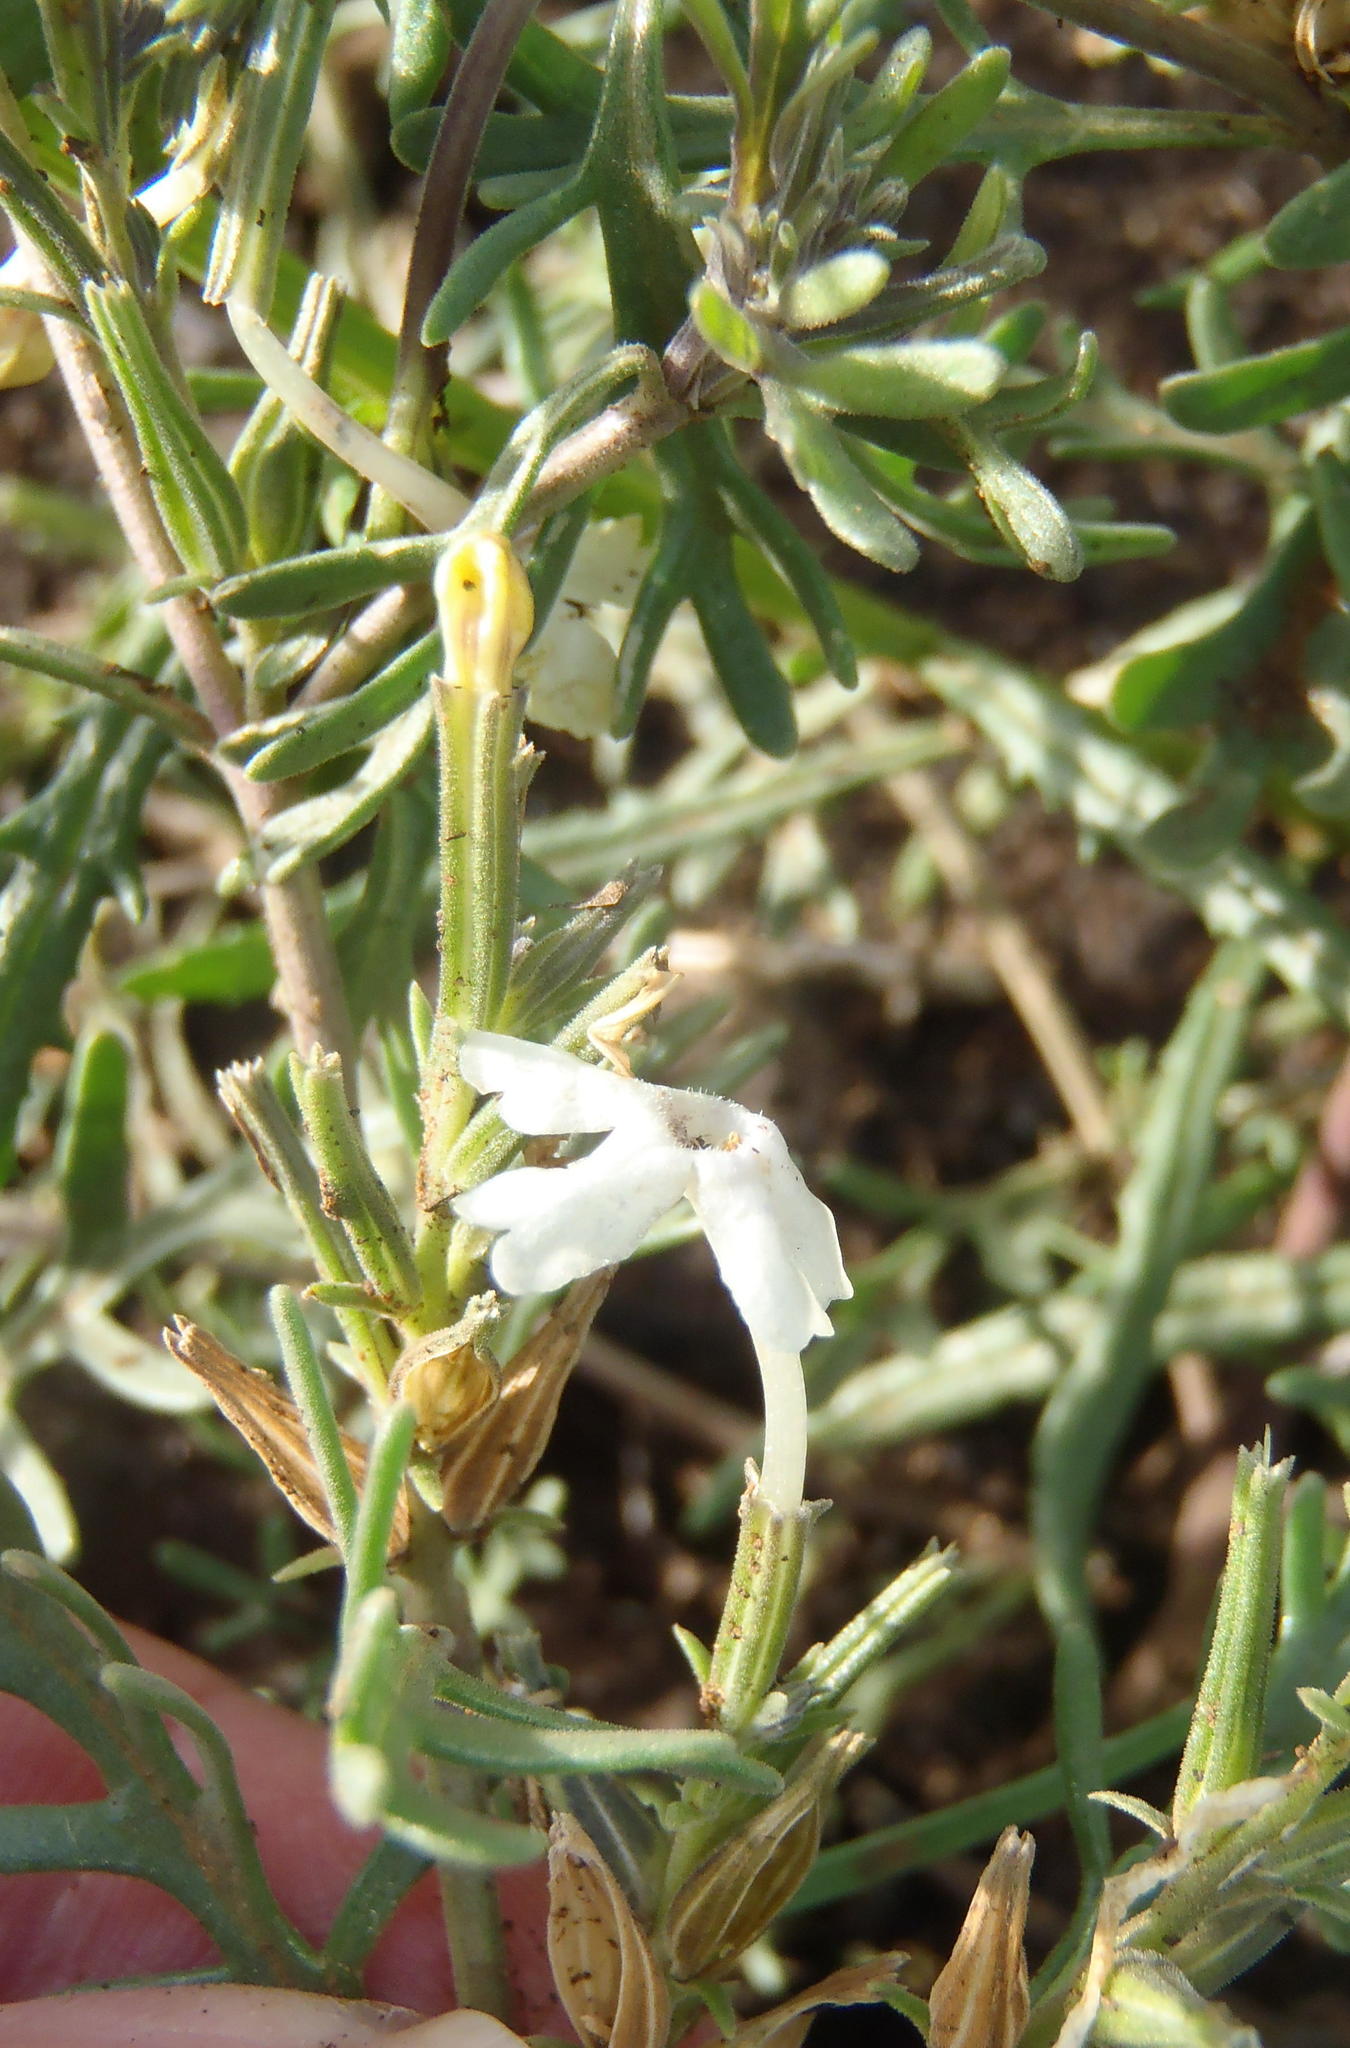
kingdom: Plantae
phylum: Tracheophyta
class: Magnoliopsida
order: Lamiales
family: Verbenaceae
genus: Chascanum
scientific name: Chascanum pinnatifidum
